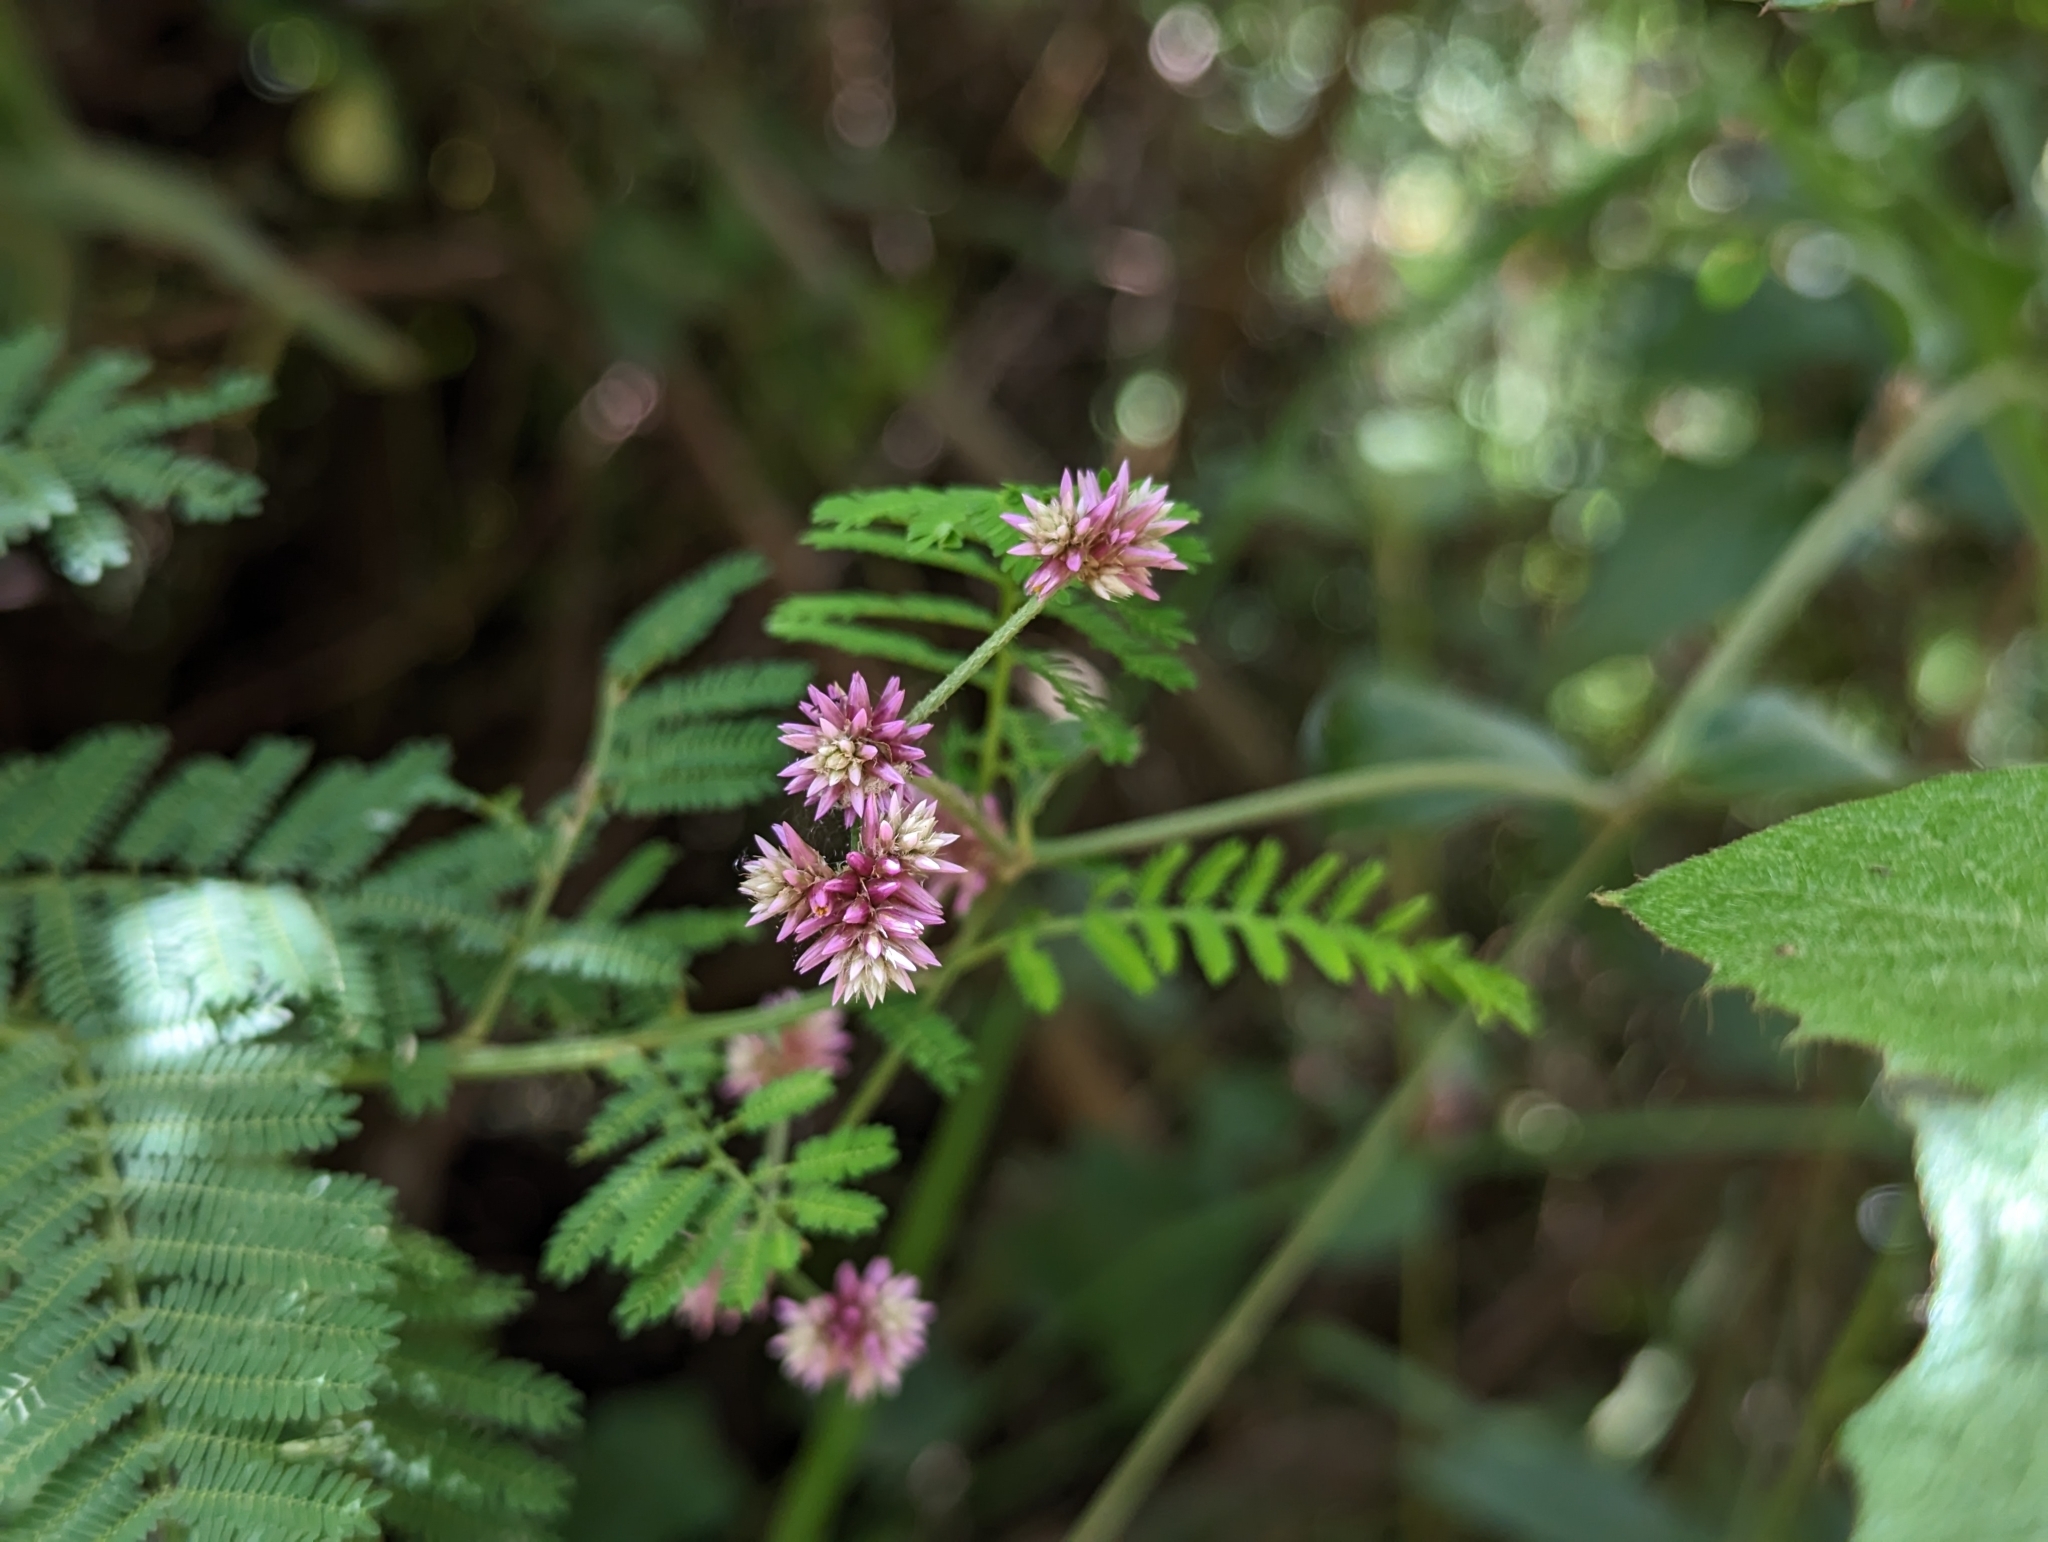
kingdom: Plantae
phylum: Tracheophyta
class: Magnoliopsida
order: Caryophyllales
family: Amaranthaceae
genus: Alternanthera
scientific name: Alternanthera porrigens
